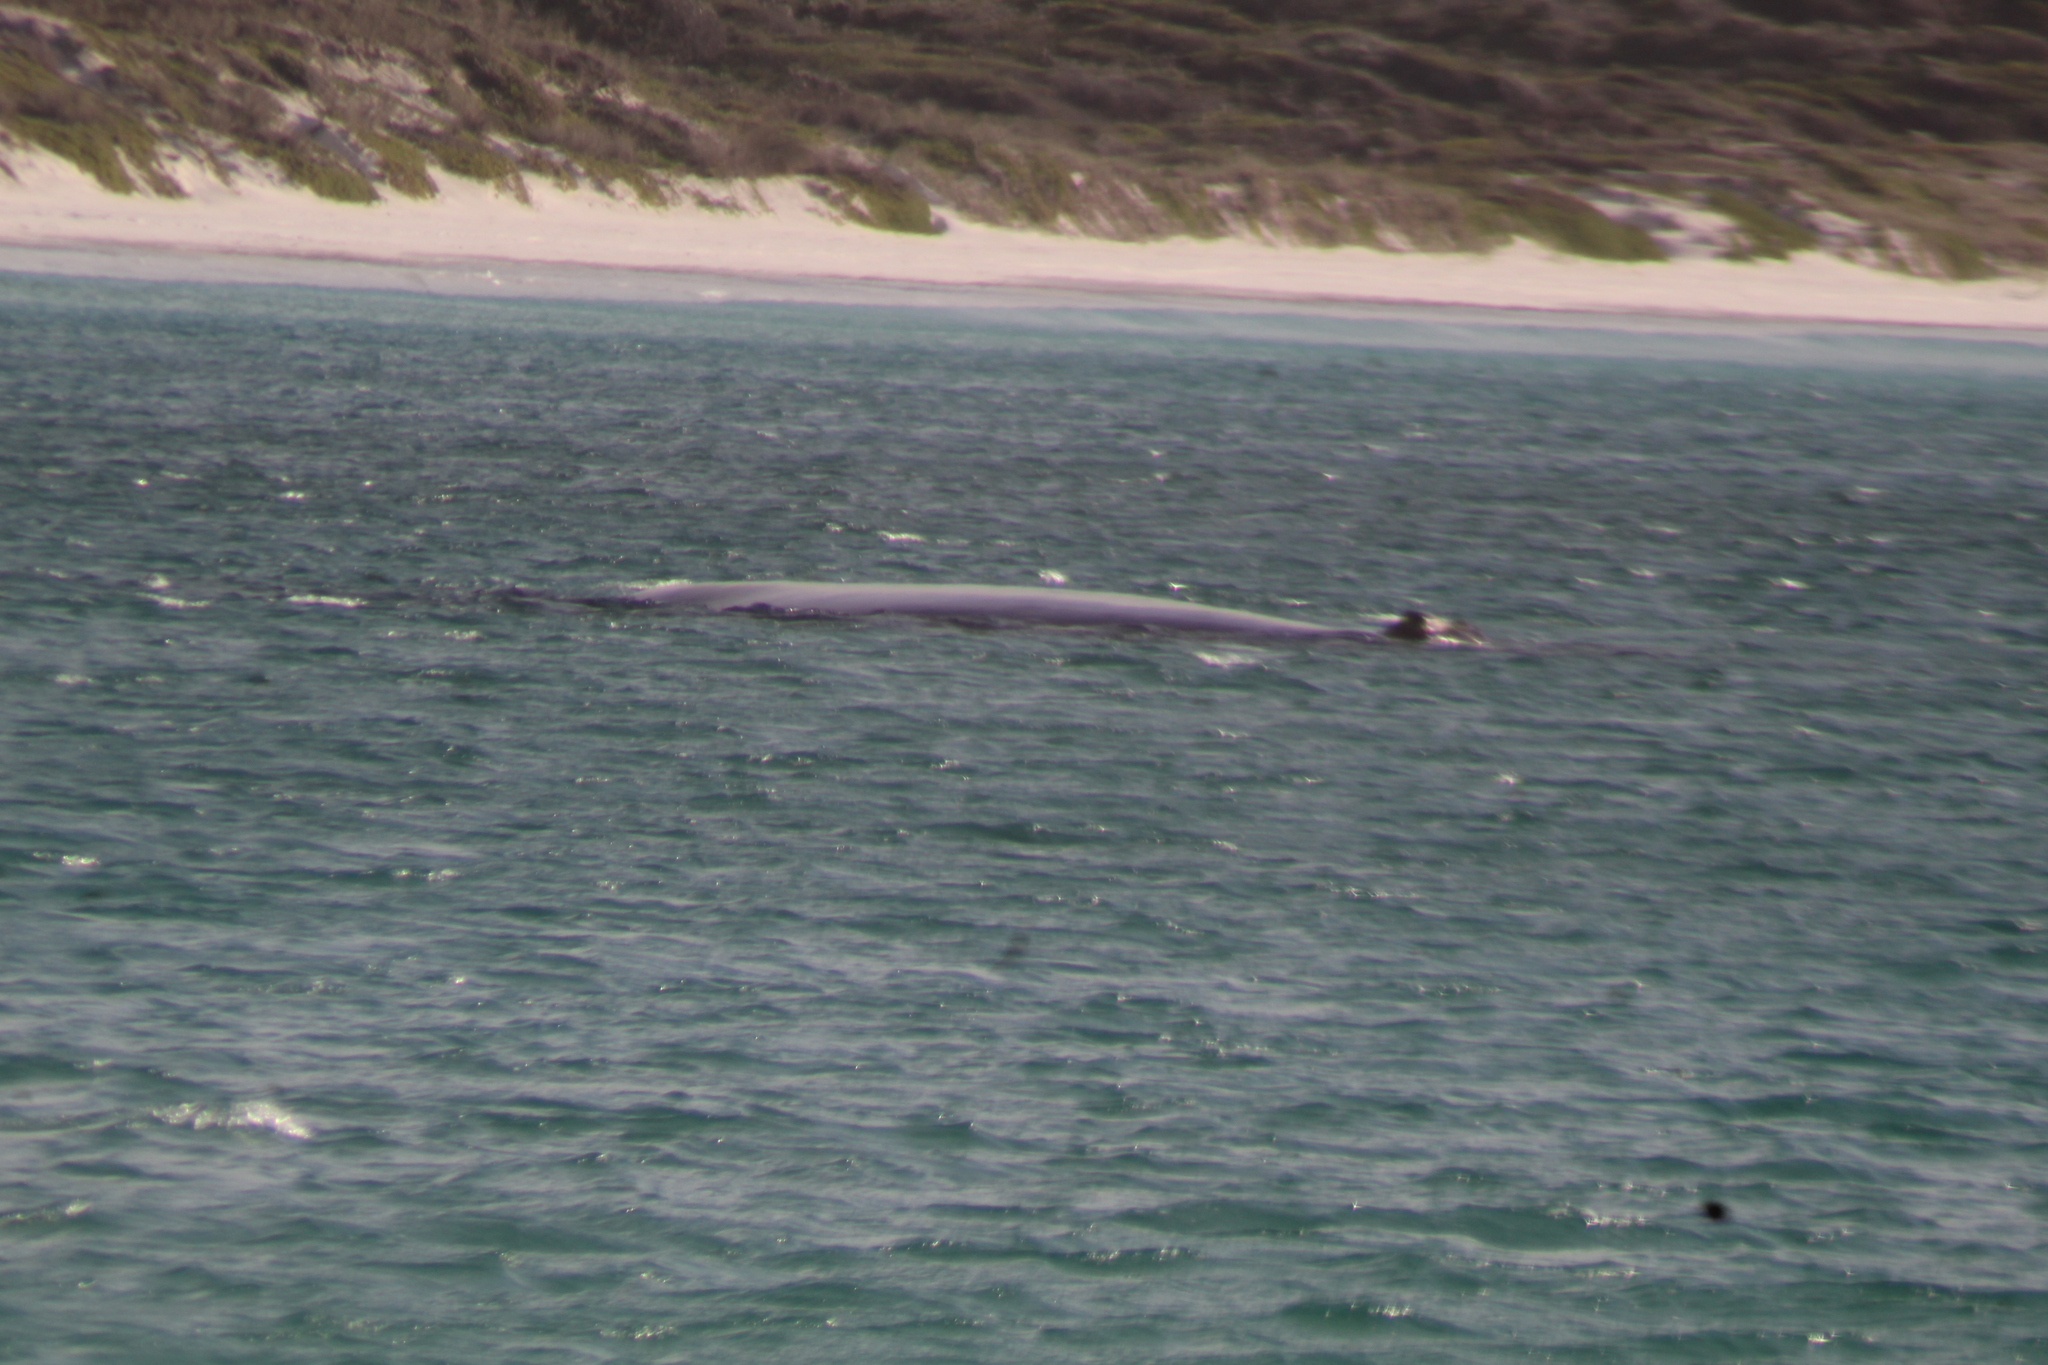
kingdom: Animalia
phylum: Chordata
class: Mammalia
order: Cetacea
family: Balaenidae
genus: Eubalaena
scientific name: Eubalaena australis
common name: Southern right whale
